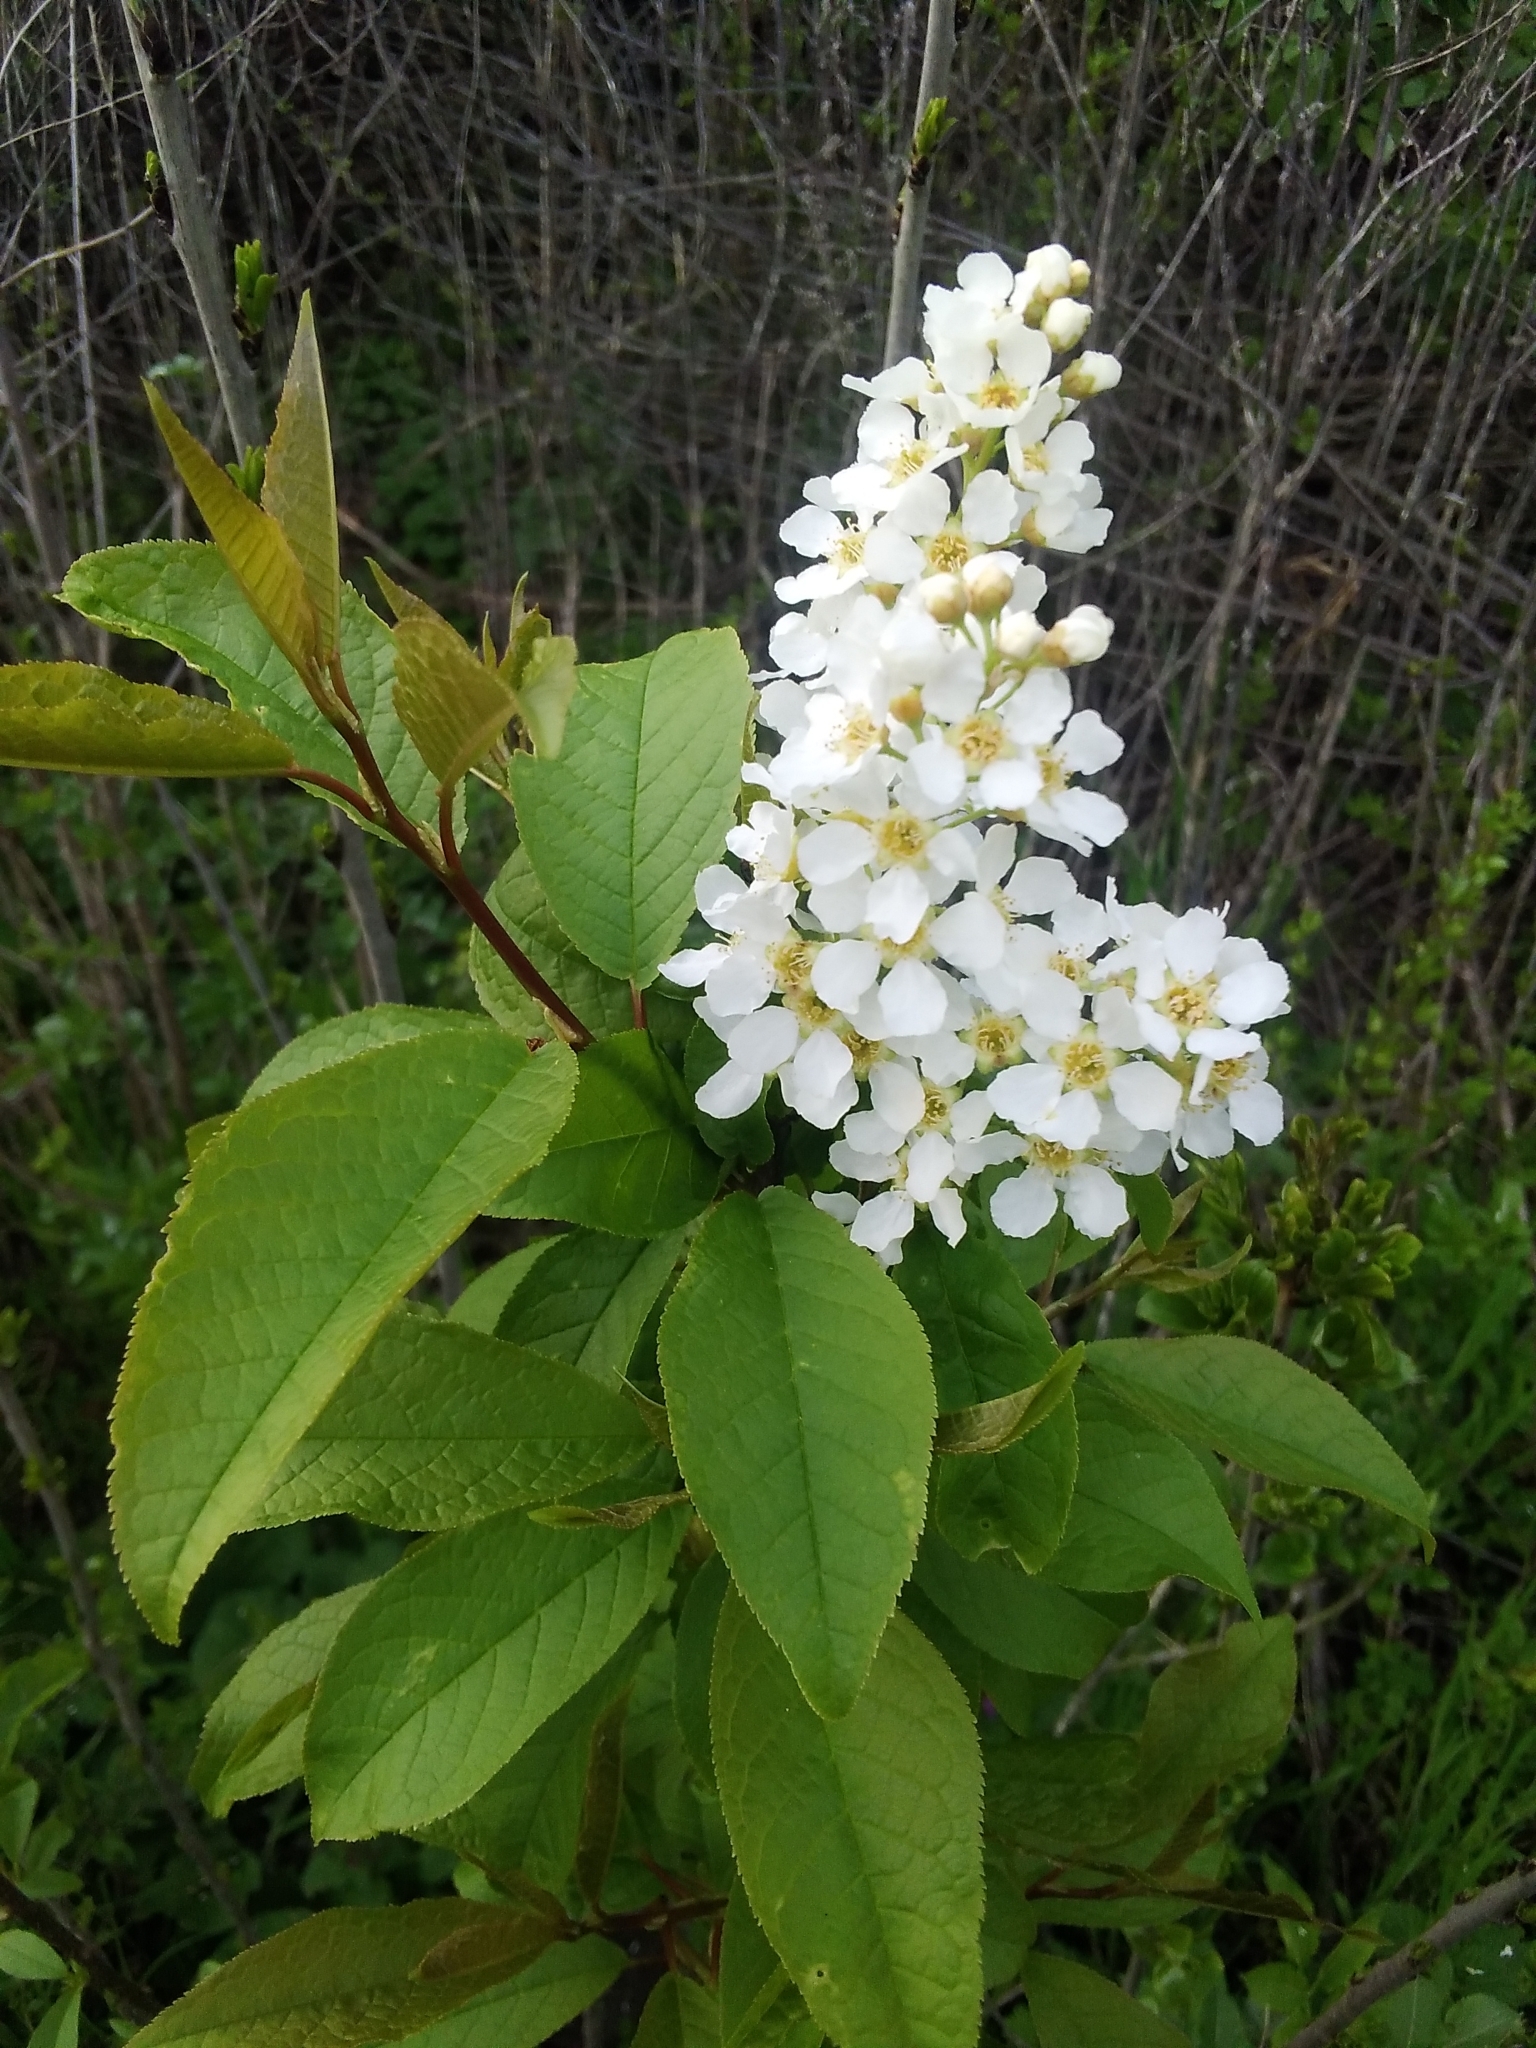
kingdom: Plantae
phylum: Tracheophyta
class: Magnoliopsida
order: Rosales
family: Rosaceae
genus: Prunus
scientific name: Prunus padus
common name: Bird cherry
